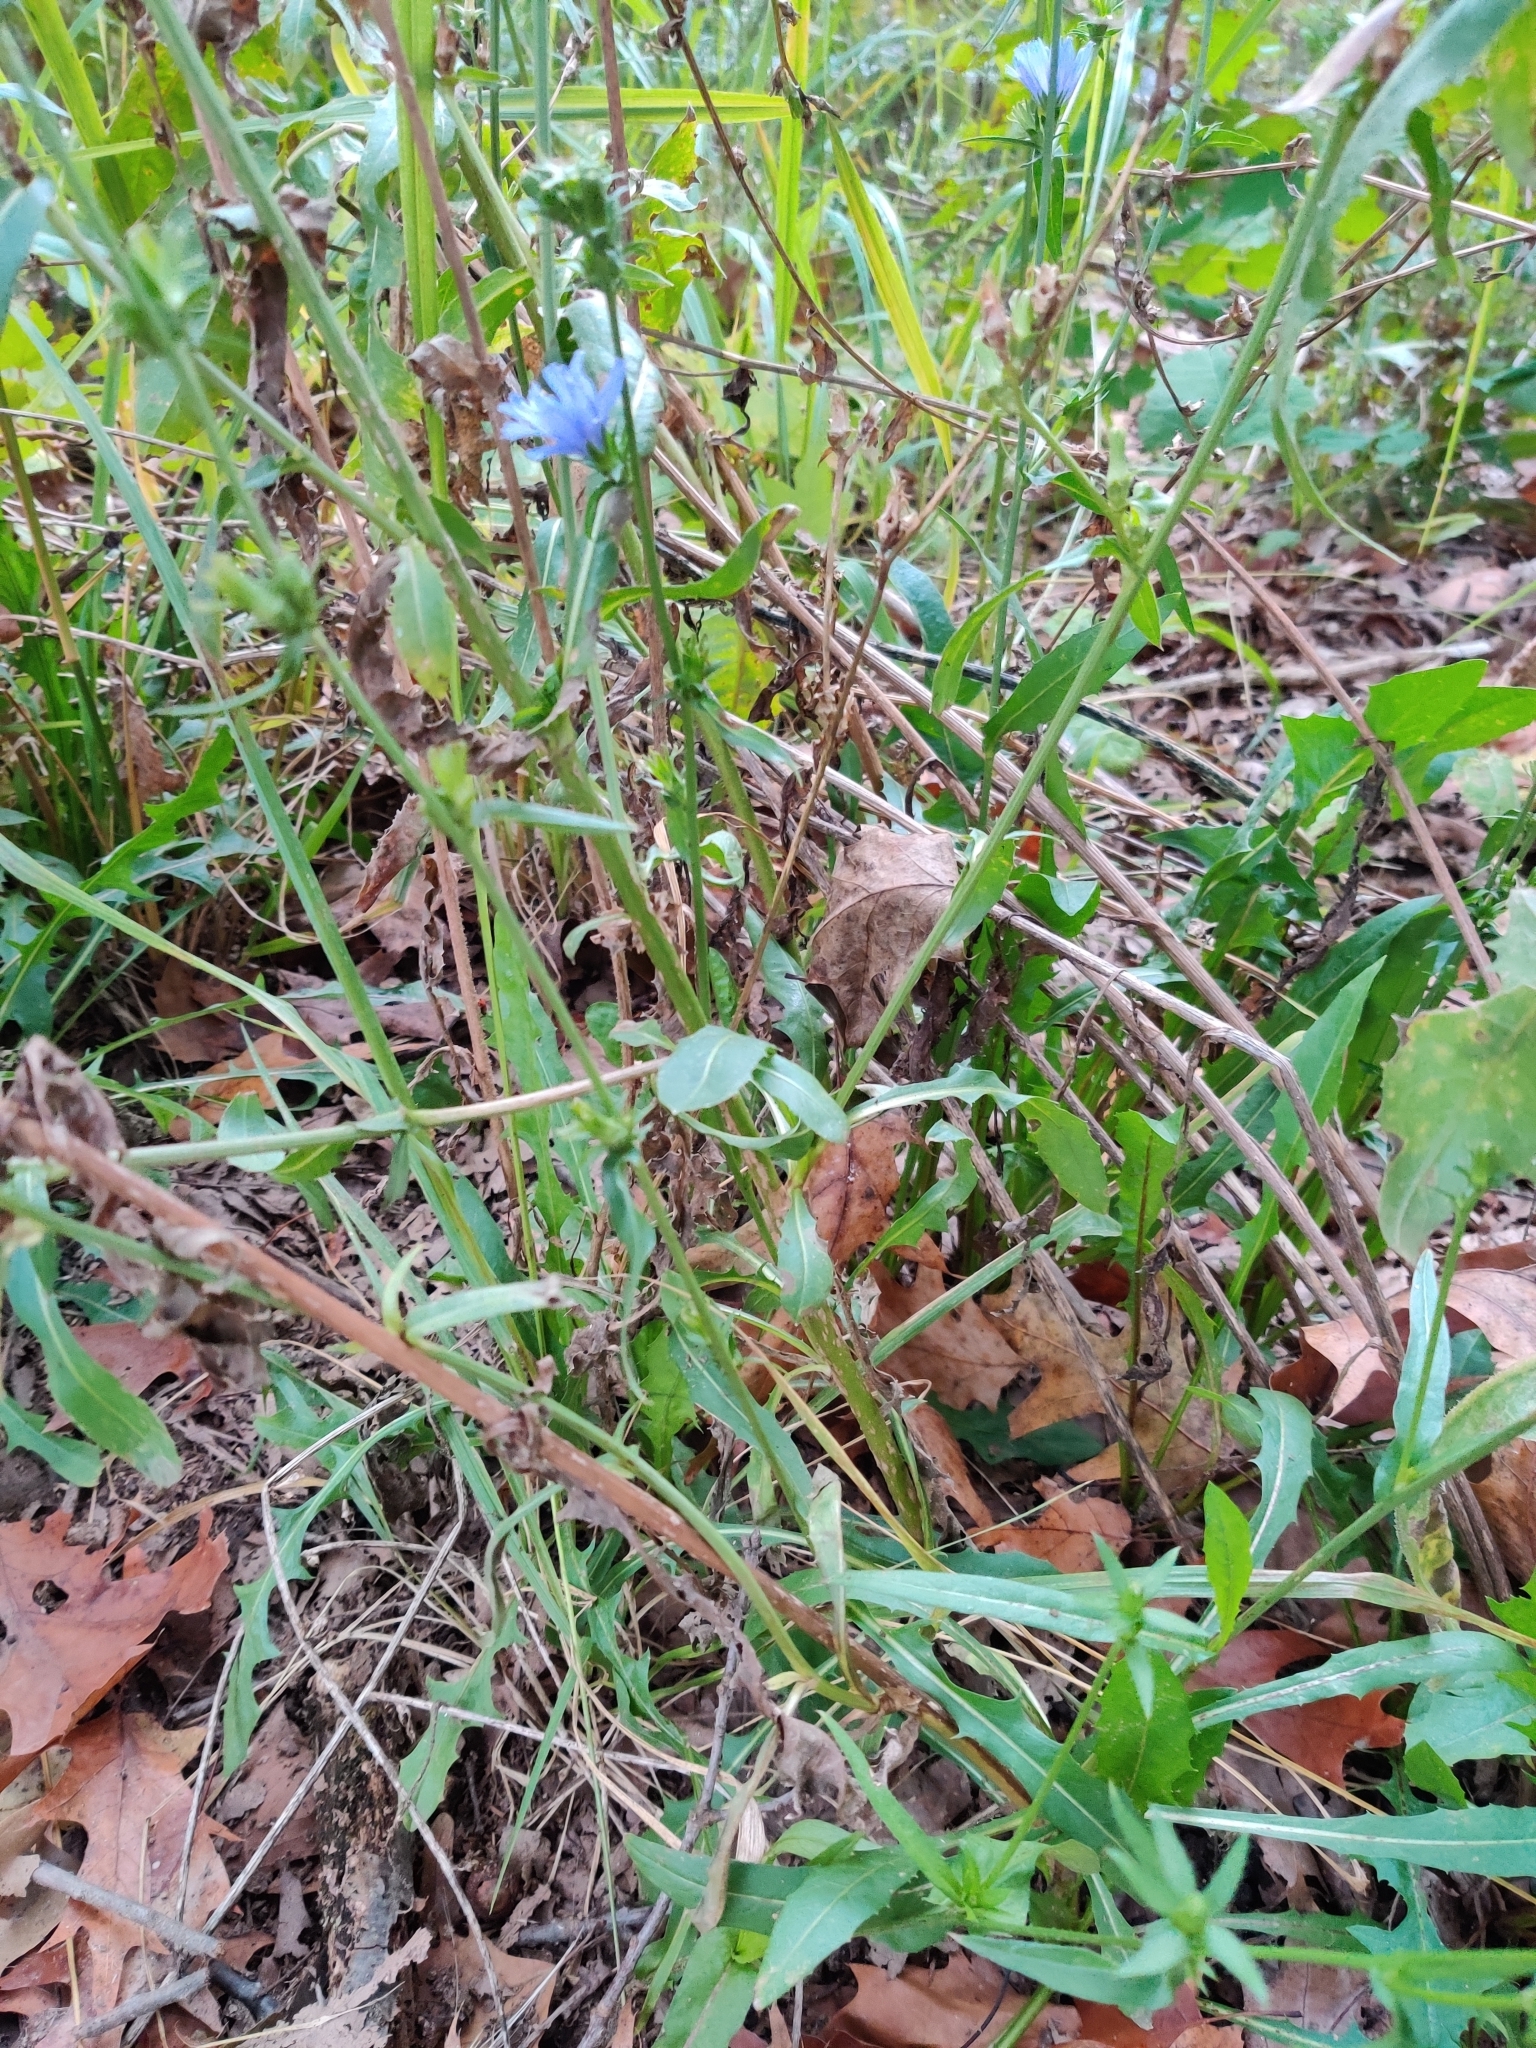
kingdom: Plantae
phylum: Tracheophyta
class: Magnoliopsida
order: Asterales
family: Asteraceae
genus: Cichorium
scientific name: Cichorium intybus
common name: Chicory
